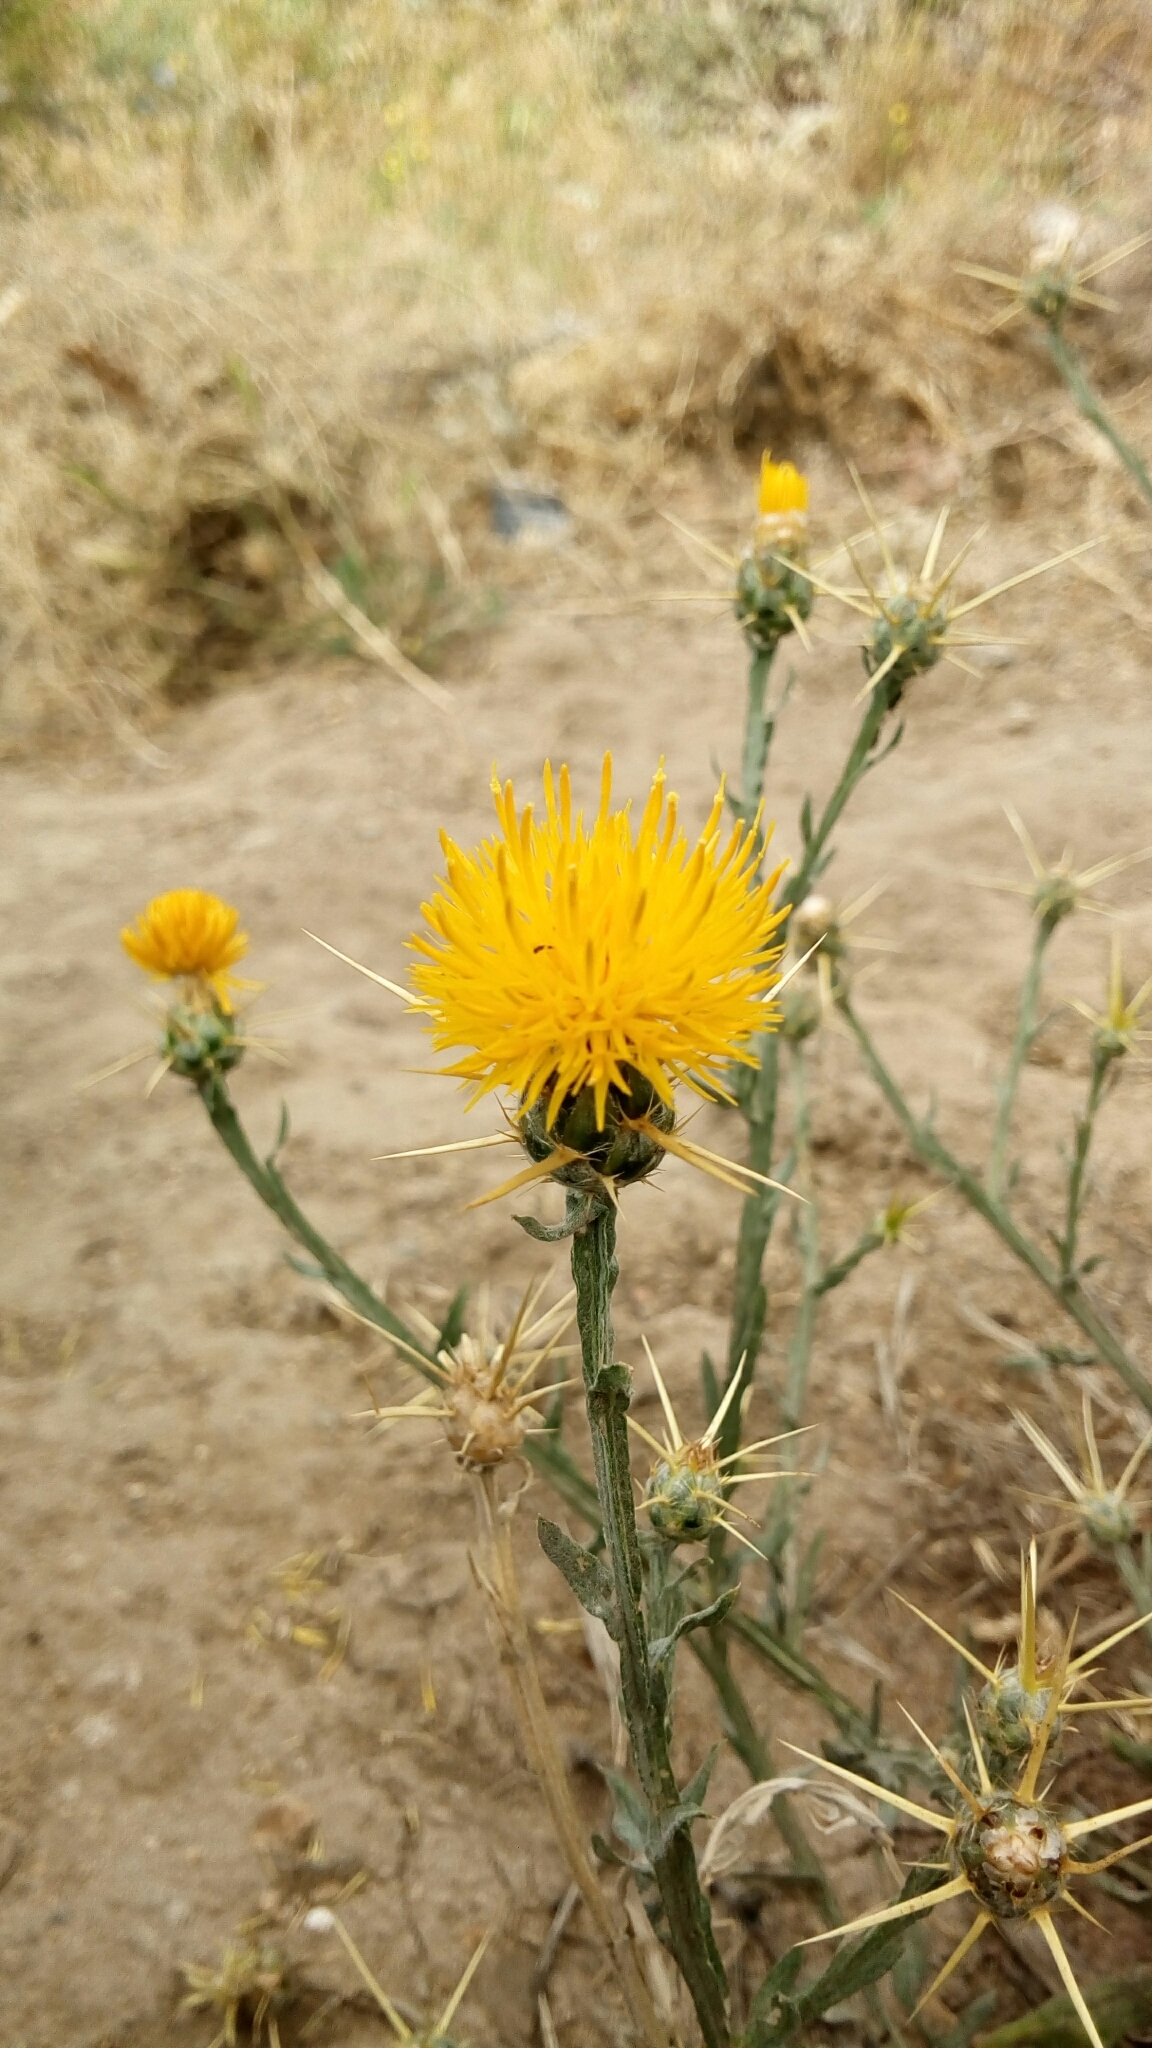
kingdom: Plantae
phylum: Tracheophyta
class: Magnoliopsida
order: Asterales
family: Asteraceae
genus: Centaurea
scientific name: Centaurea solstitialis
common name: Yellow star-thistle
